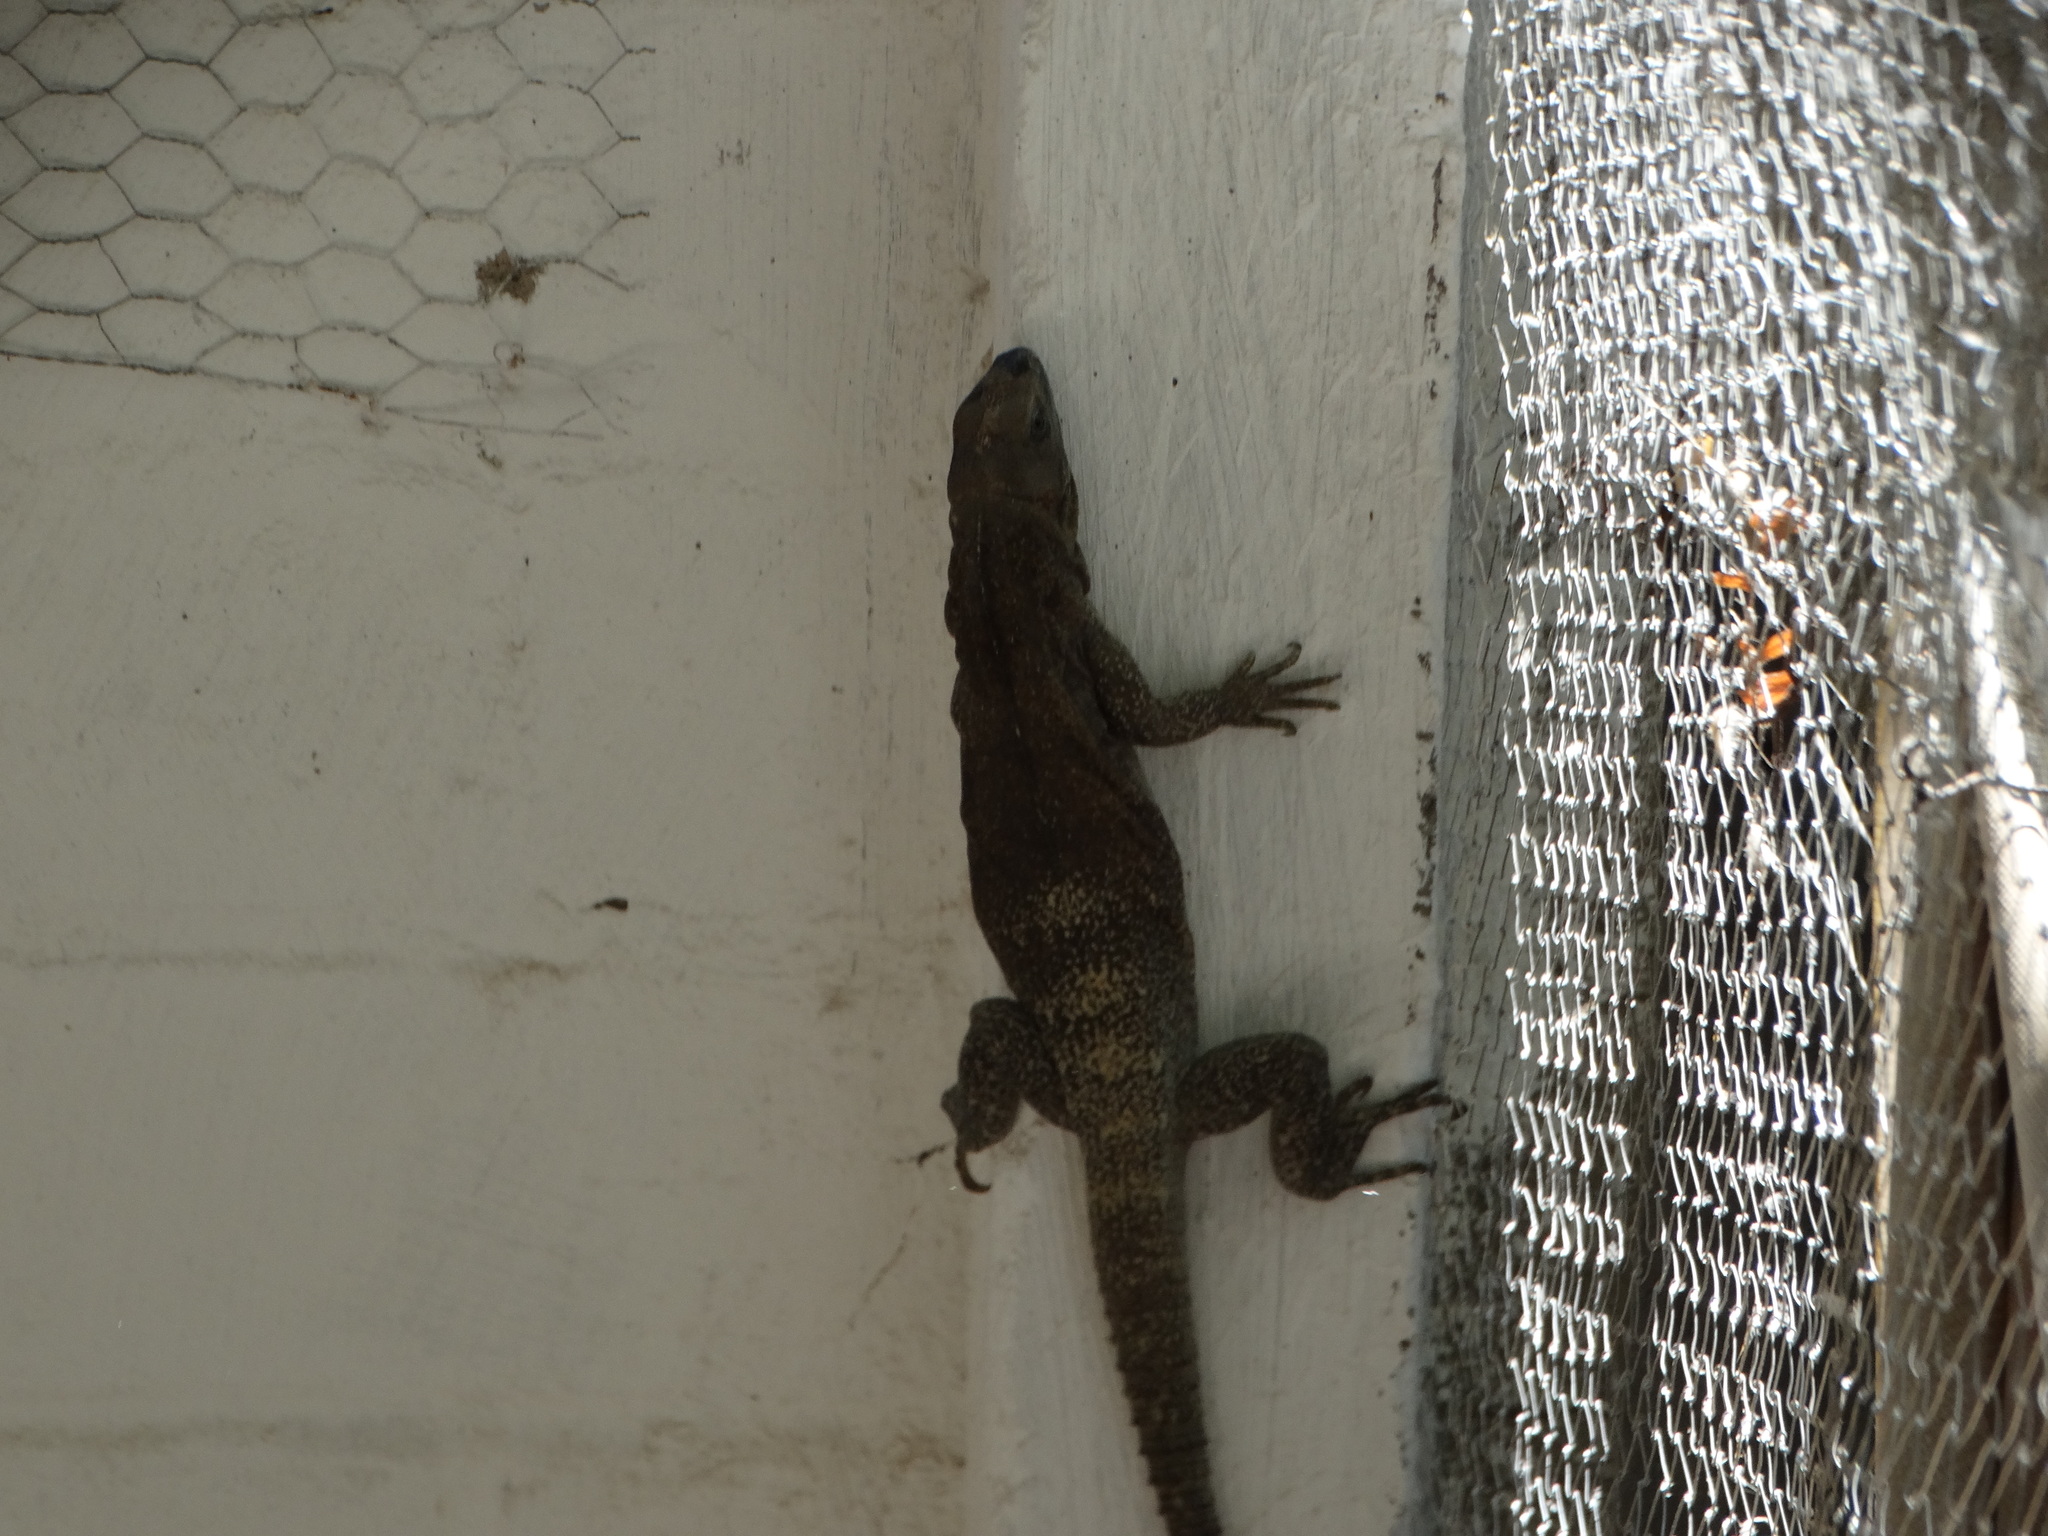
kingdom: Animalia
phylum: Chordata
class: Squamata
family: Iguanidae
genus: Ctenosaura
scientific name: Ctenosaura similis
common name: Black spiny-tailed iguana
